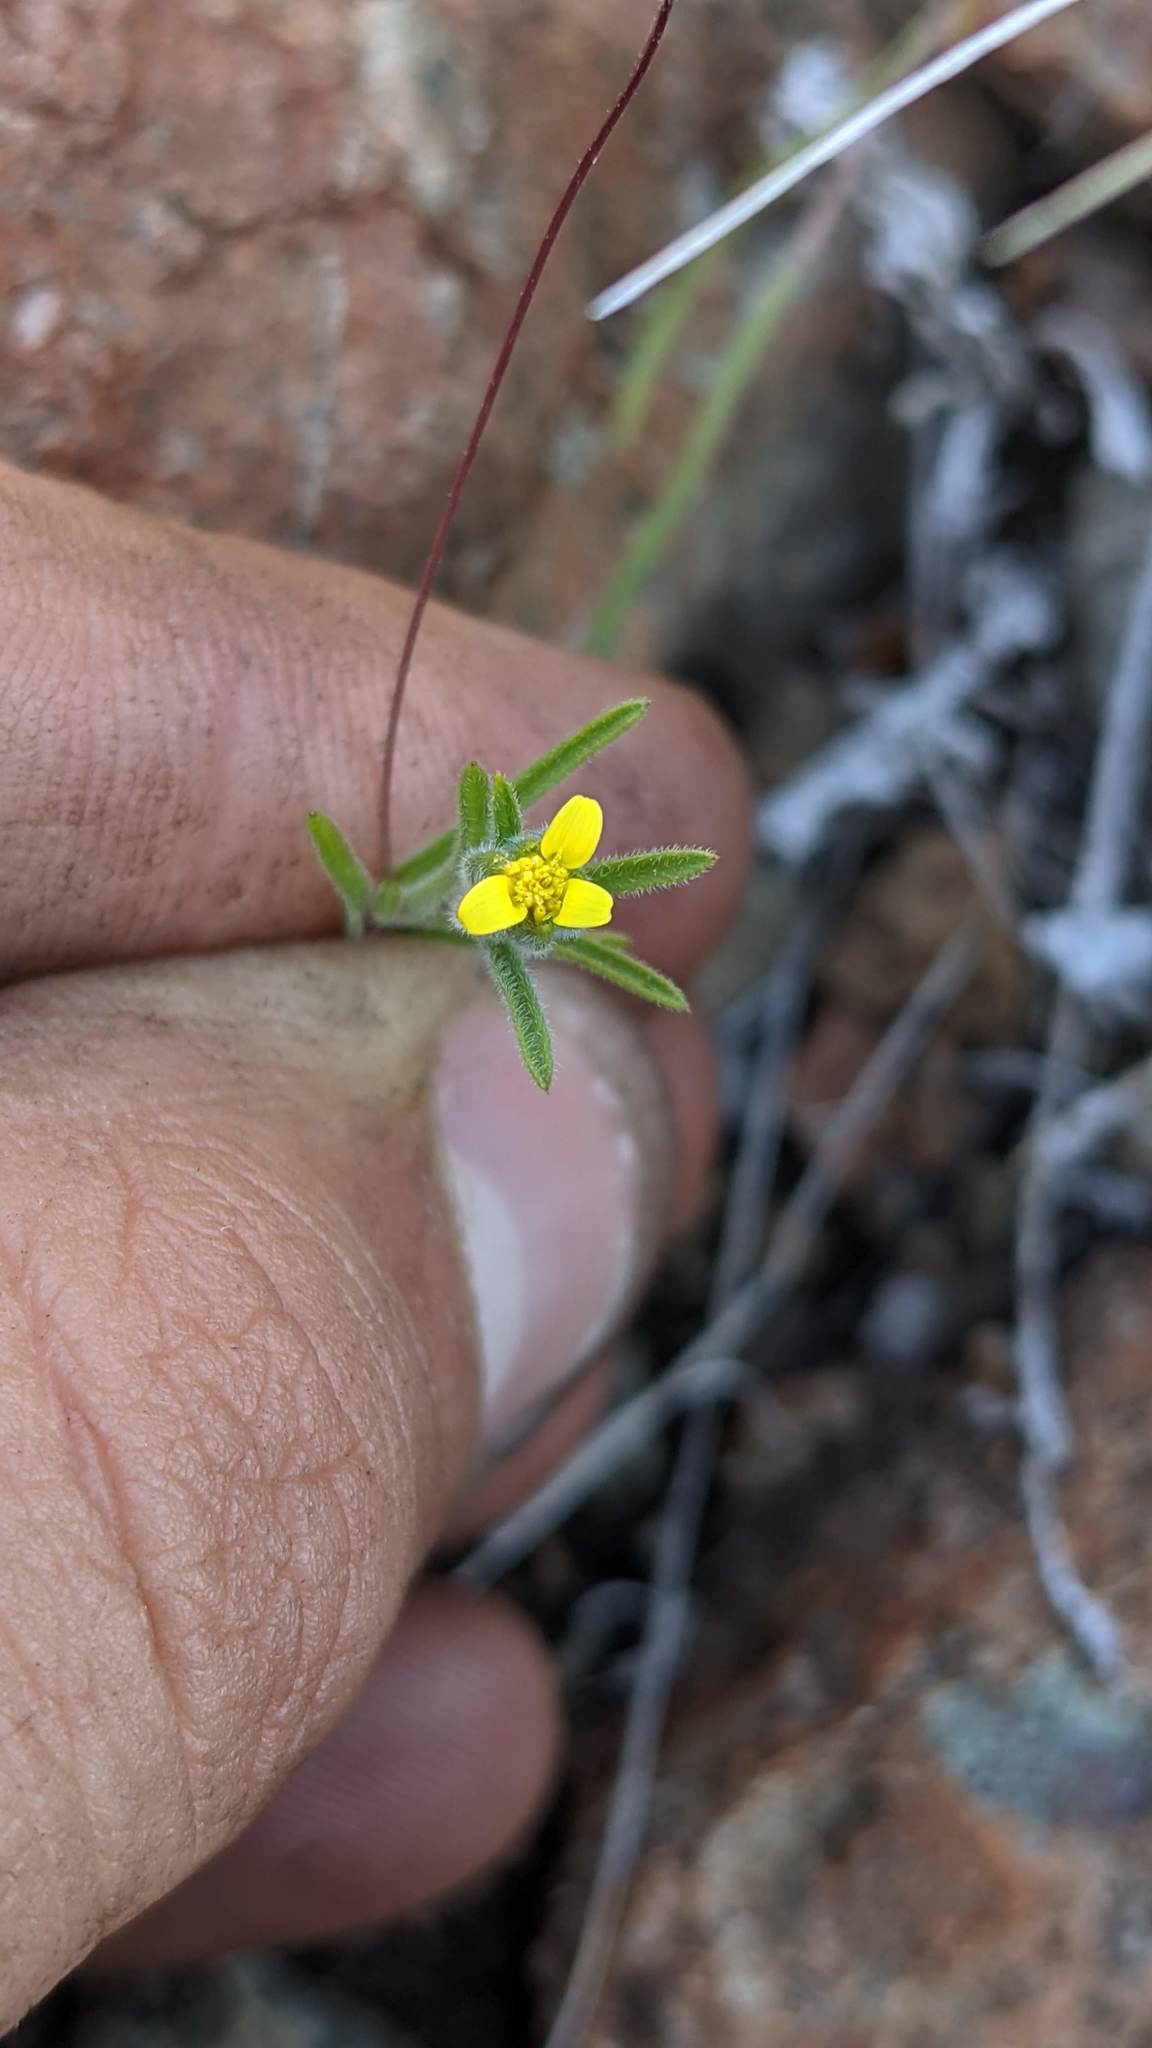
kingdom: Plantae
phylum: Tracheophyta
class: Magnoliopsida
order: Asterales
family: Asteraceae
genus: Rigiopappus
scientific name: Rigiopappus leptocladus
